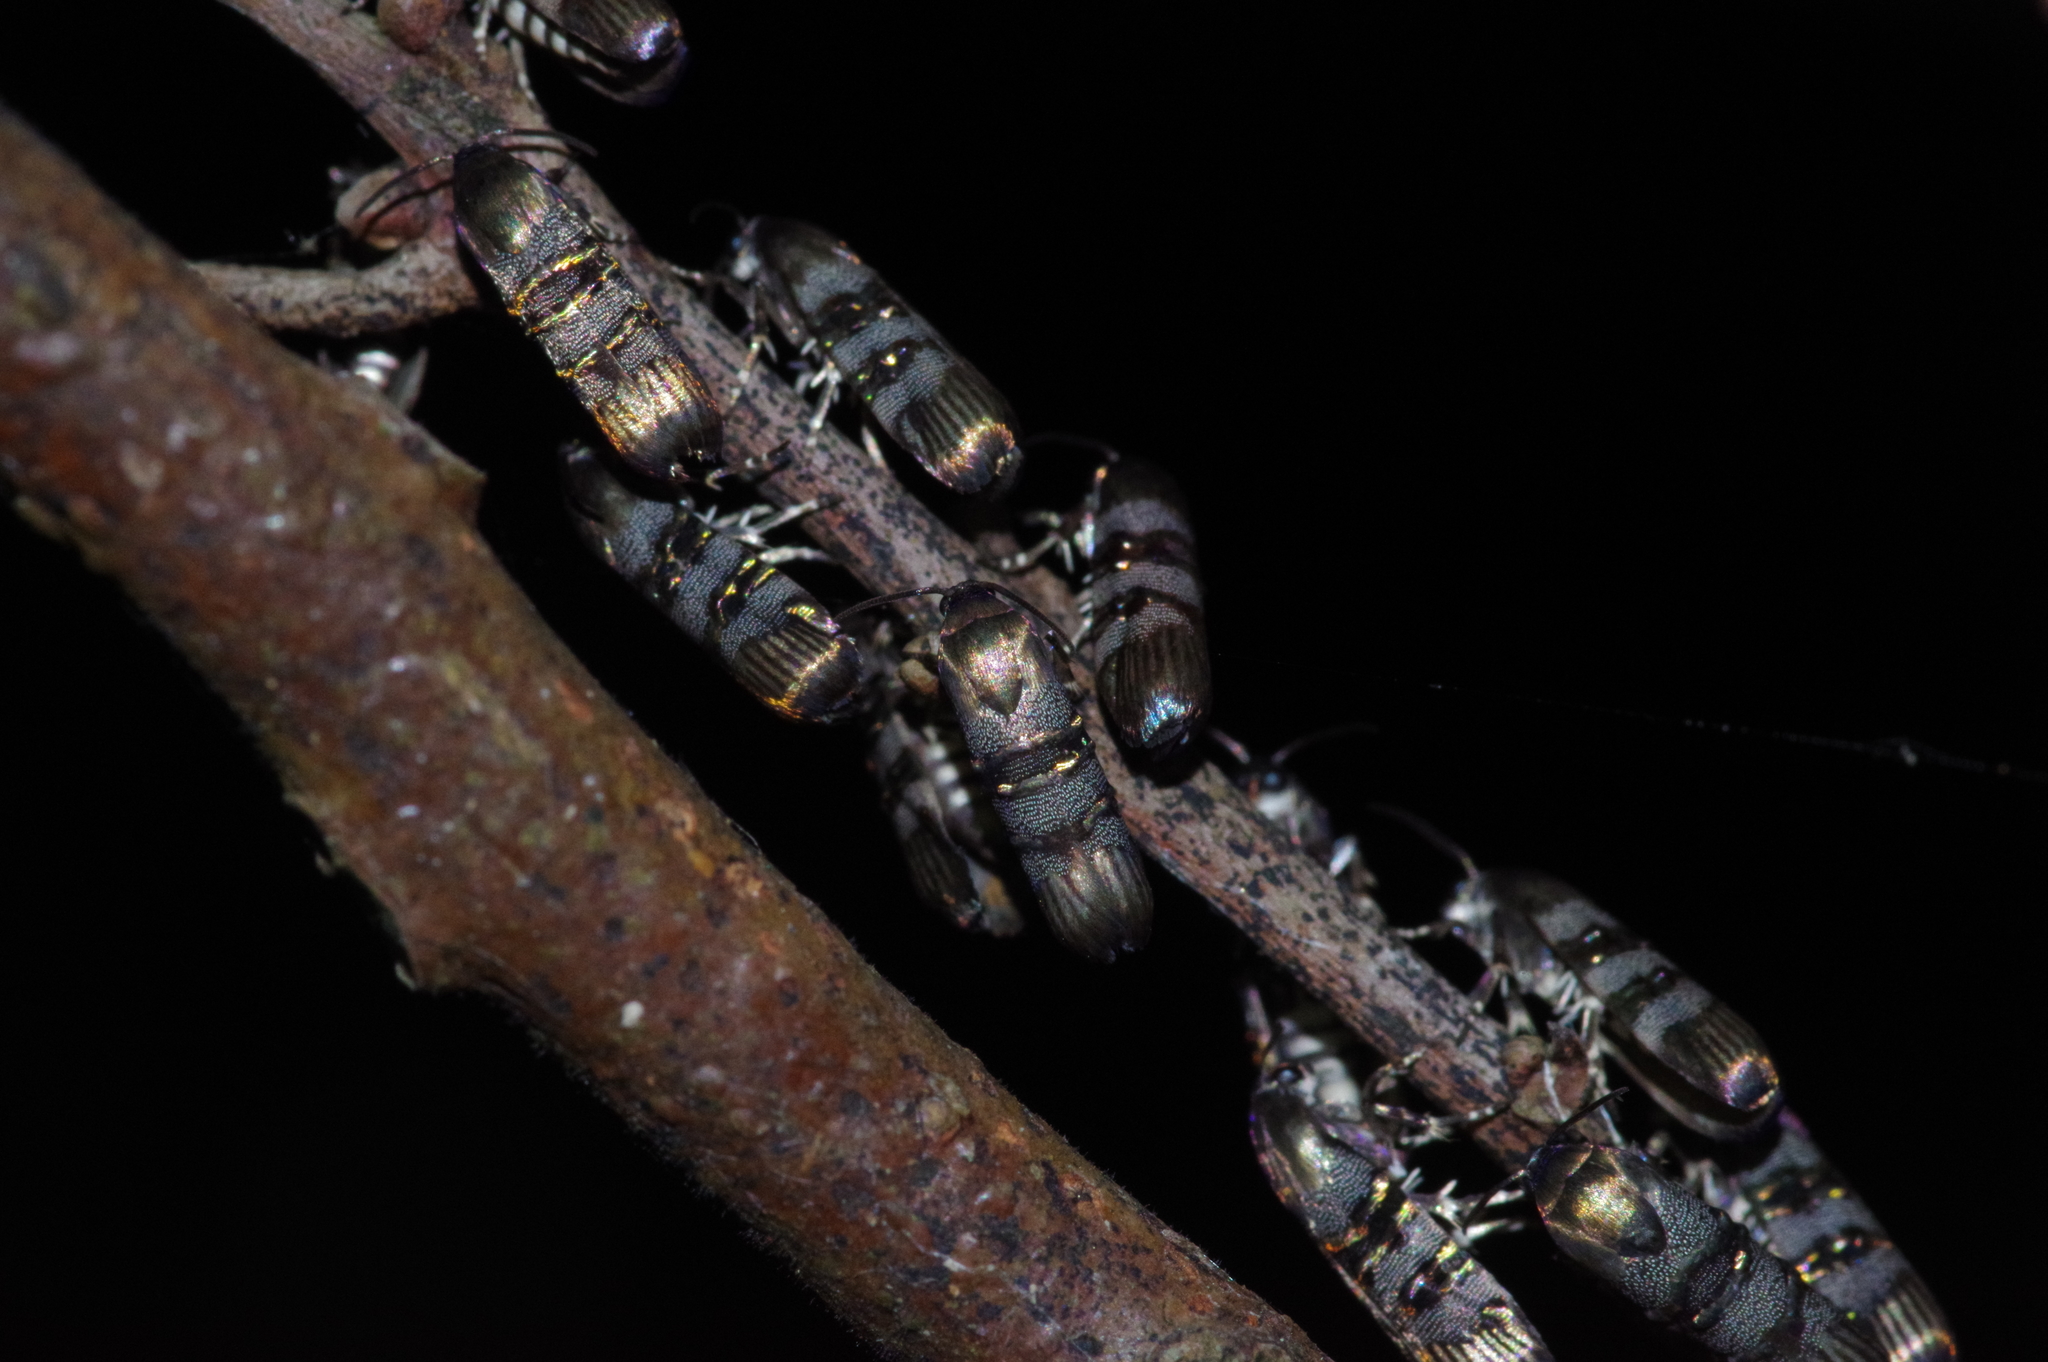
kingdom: Animalia
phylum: Arthropoda
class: Insecta
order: Lepidoptera
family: Brachodidae
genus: Phycodes
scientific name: Phycodes limata
